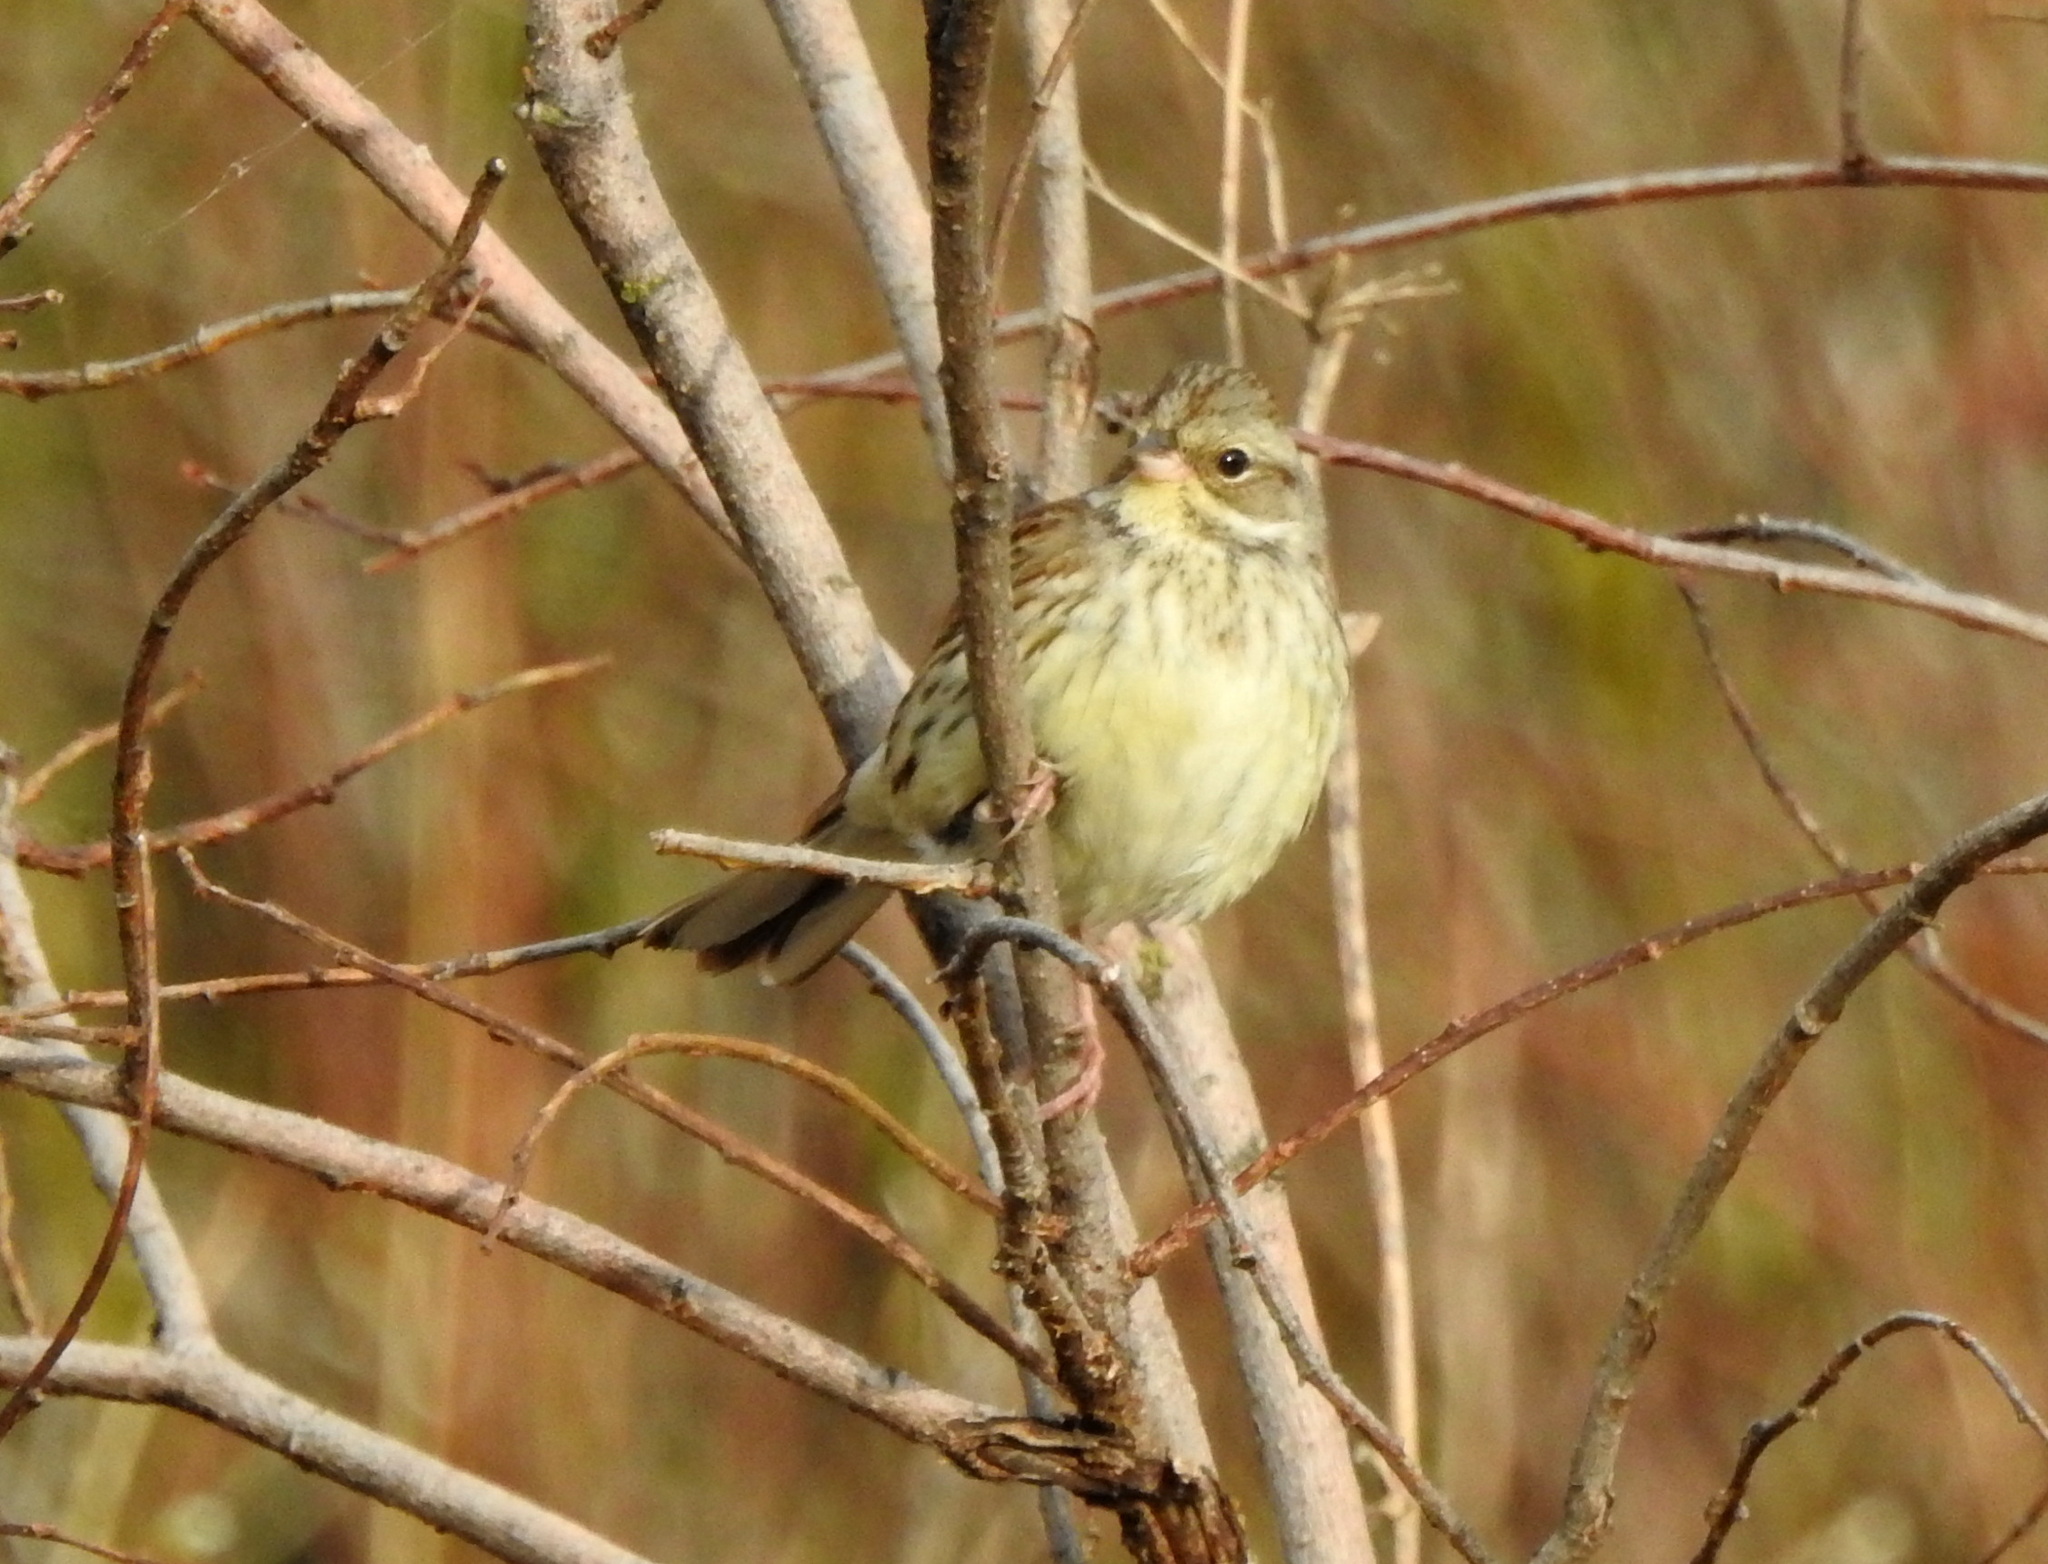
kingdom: Animalia
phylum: Chordata
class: Aves
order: Passeriformes
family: Emberizidae
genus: Emberiza
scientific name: Emberiza spodocephala
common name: Black-faced bunting
